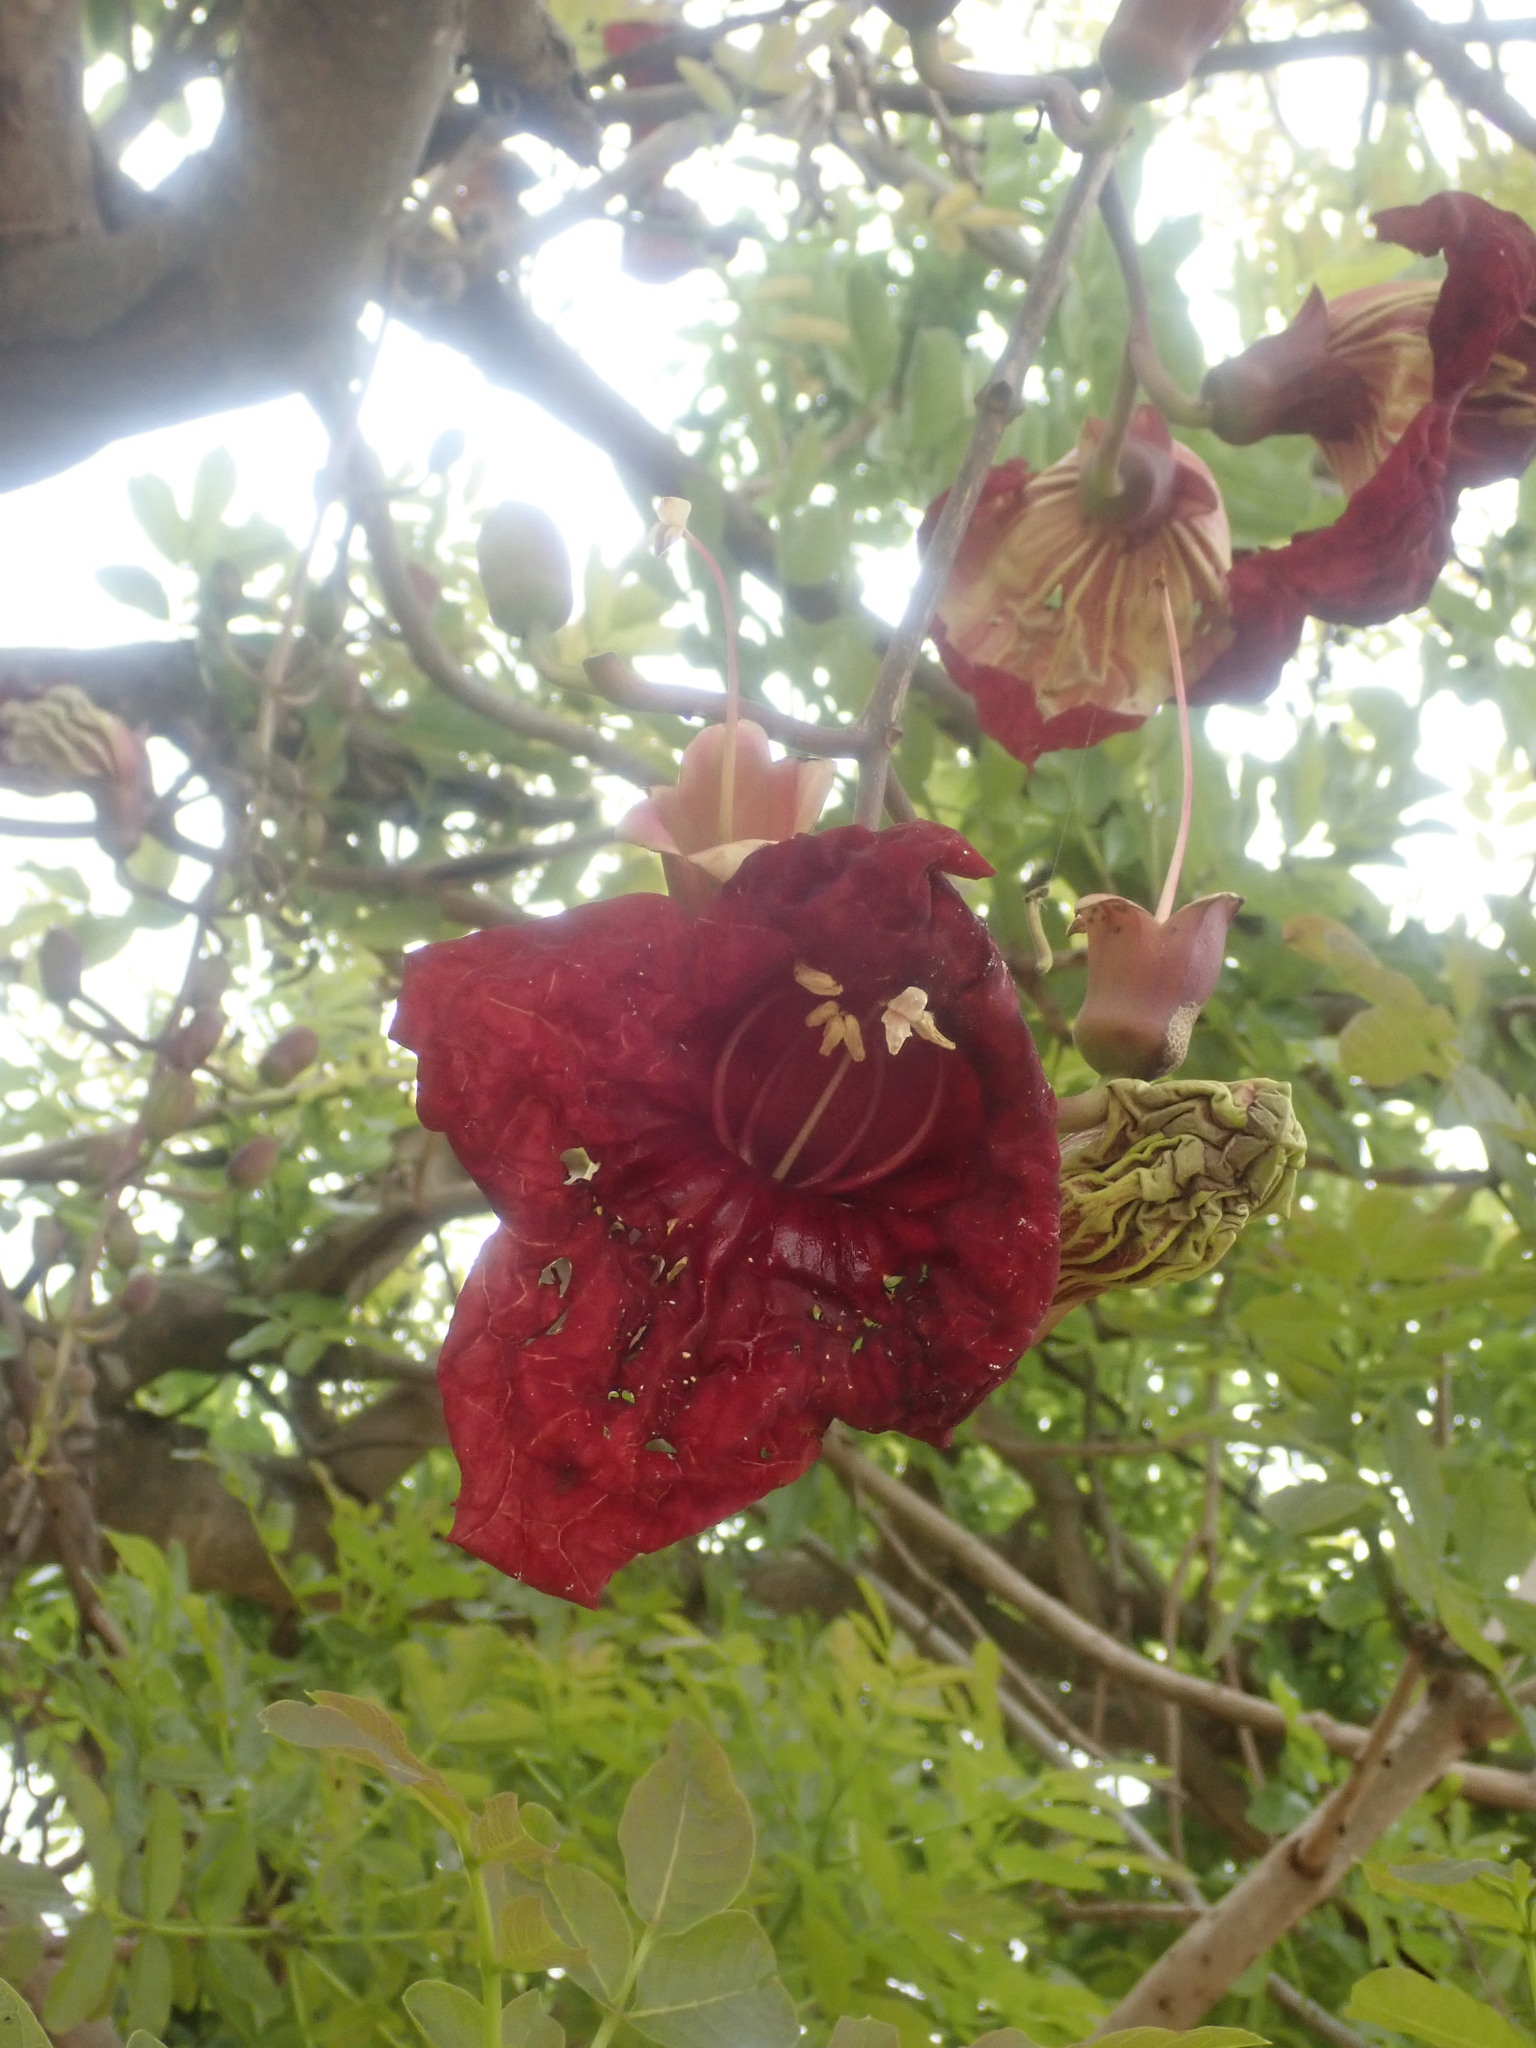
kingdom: Plantae
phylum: Tracheophyta
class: Magnoliopsida
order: Lamiales
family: Bignoniaceae
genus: Kigelia
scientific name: Kigelia africana
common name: Sausage tree
